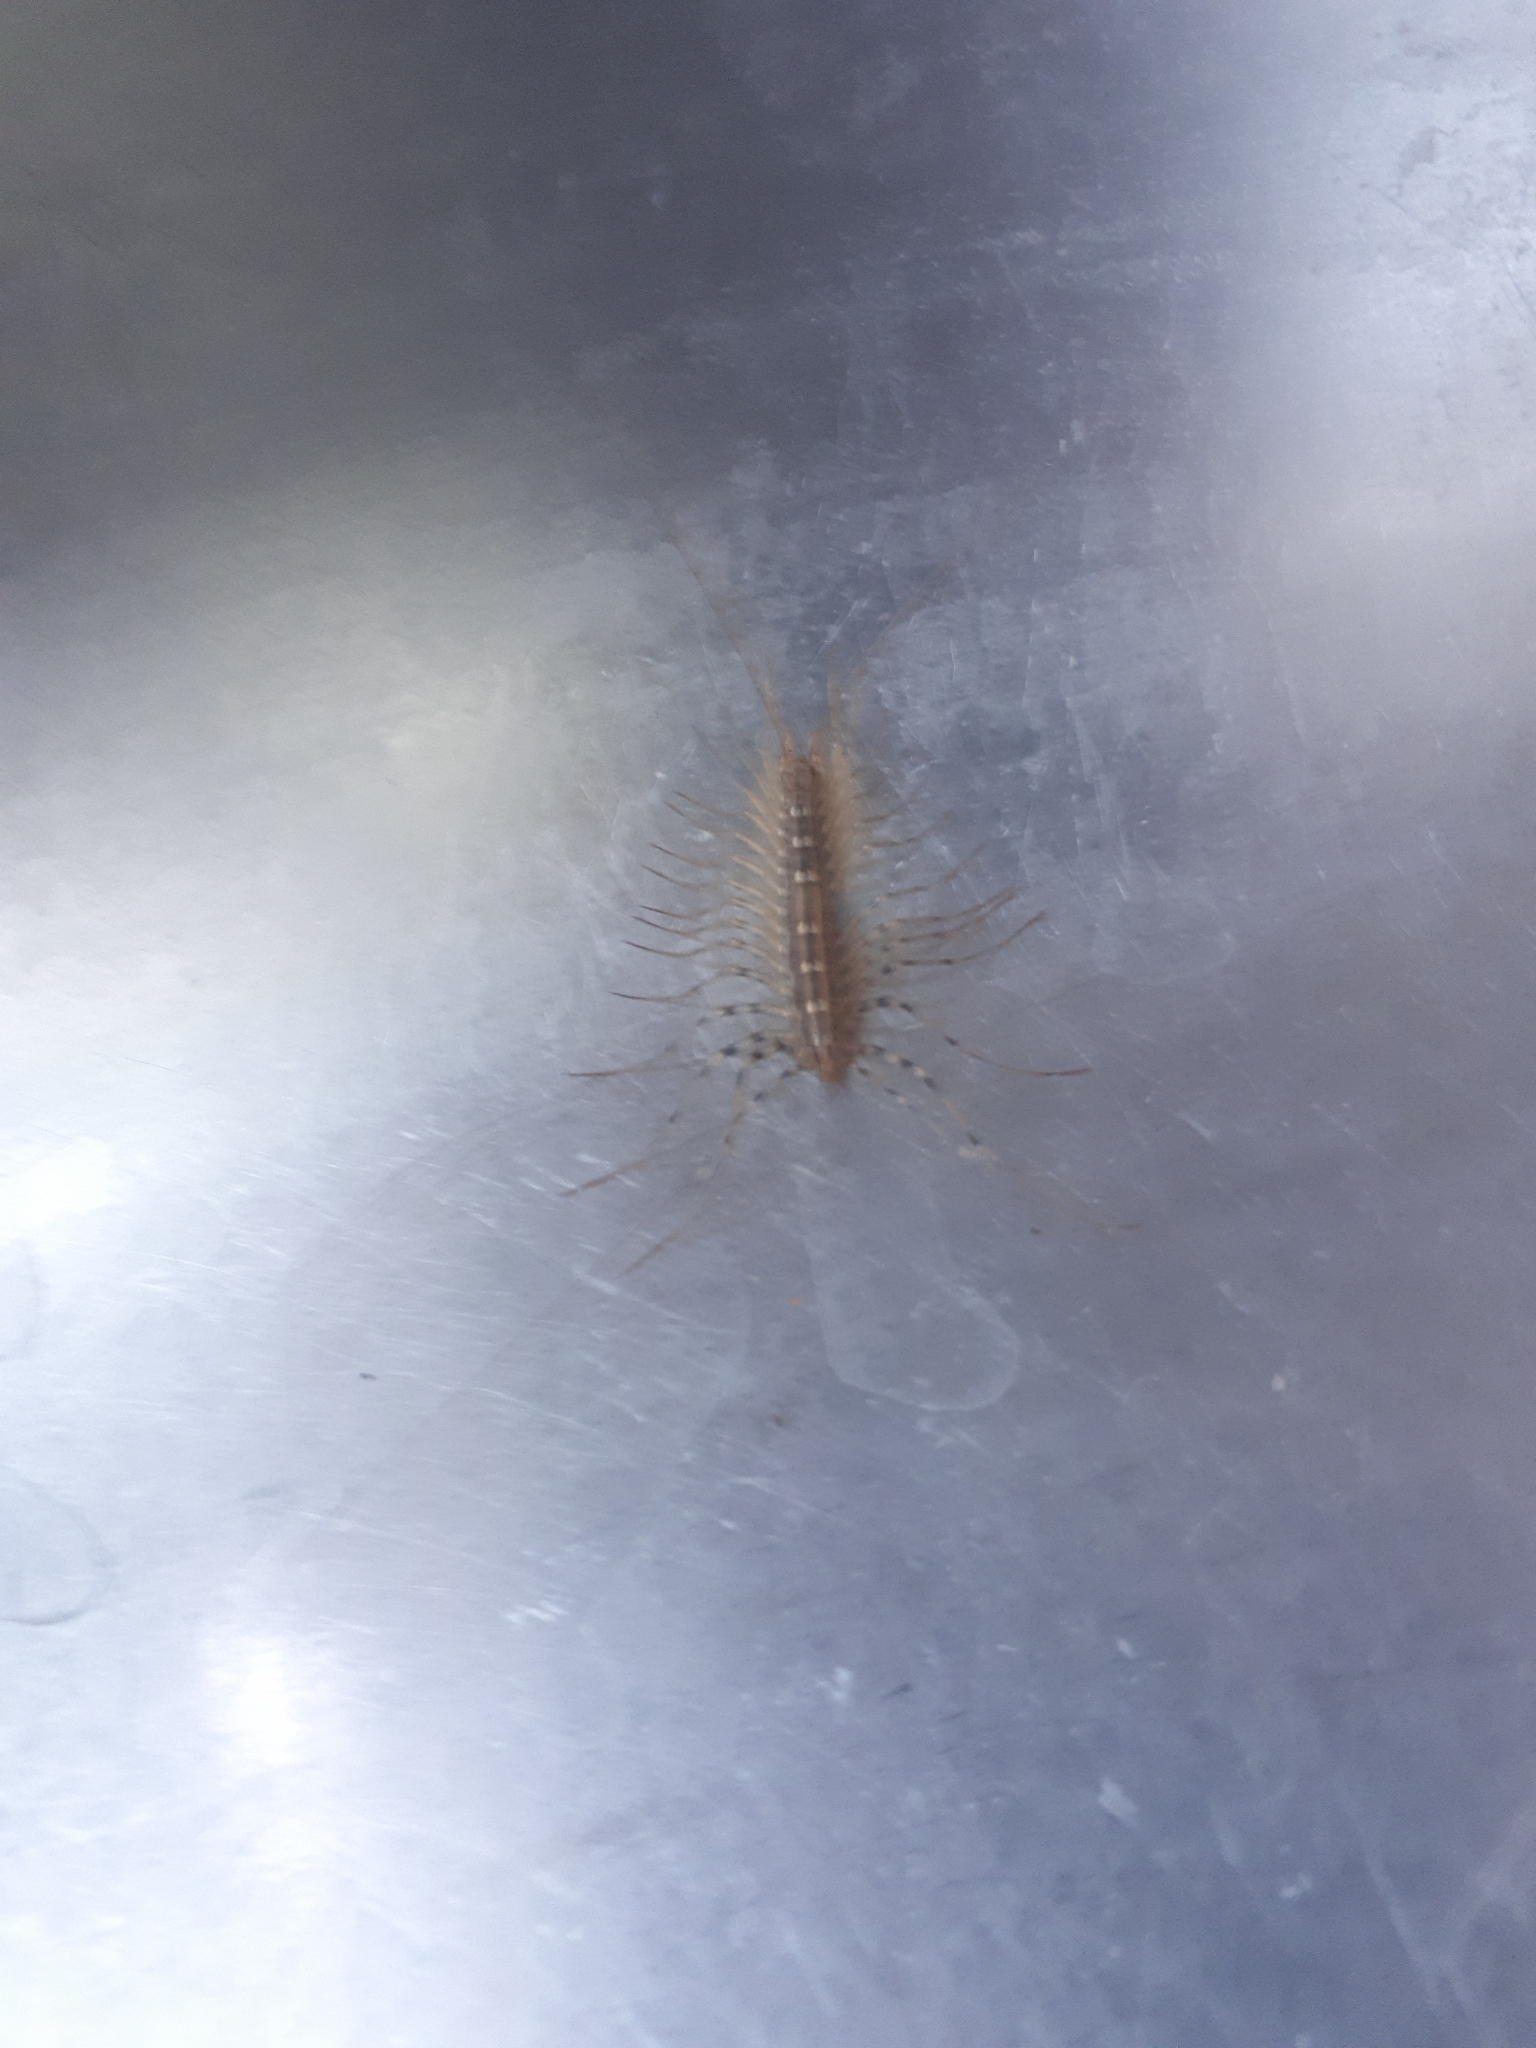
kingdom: Animalia
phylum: Arthropoda
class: Chilopoda
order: Scutigeromorpha
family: Scutigeridae
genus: Scutigera
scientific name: Scutigera coleoptrata
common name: House centipede
